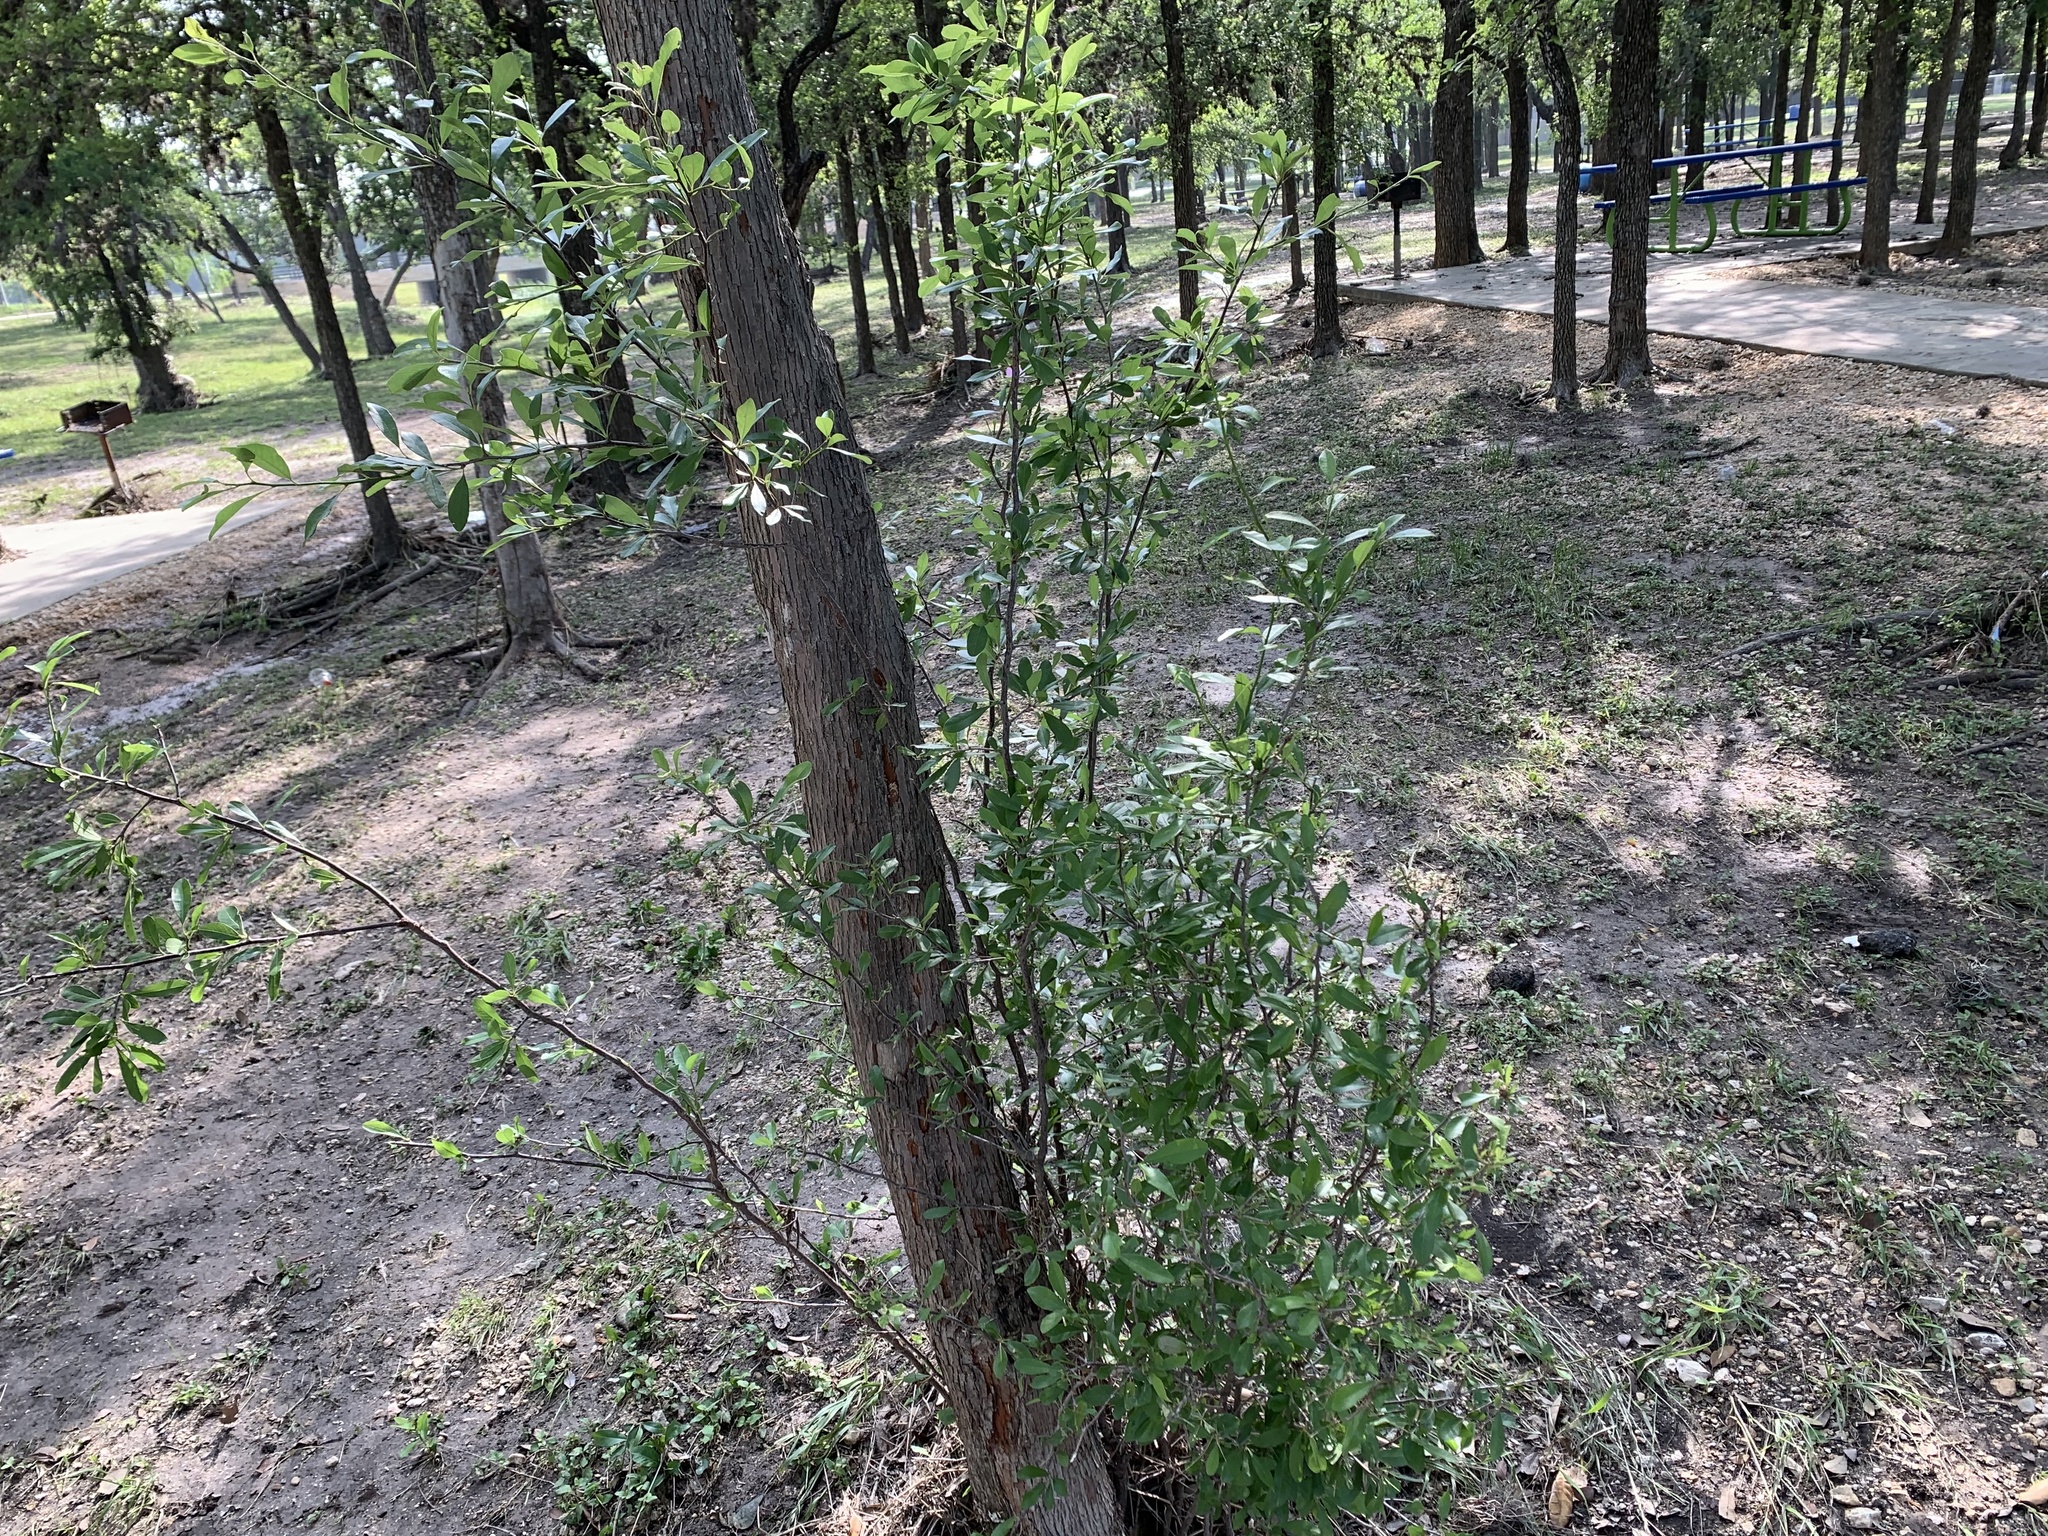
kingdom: Plantae
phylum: Tracheophyta
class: Magnoliopsida
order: Ericales
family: Sapotaceae
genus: Sideroxylon
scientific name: Sideroxylon lanuginosum
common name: Chittamwood
